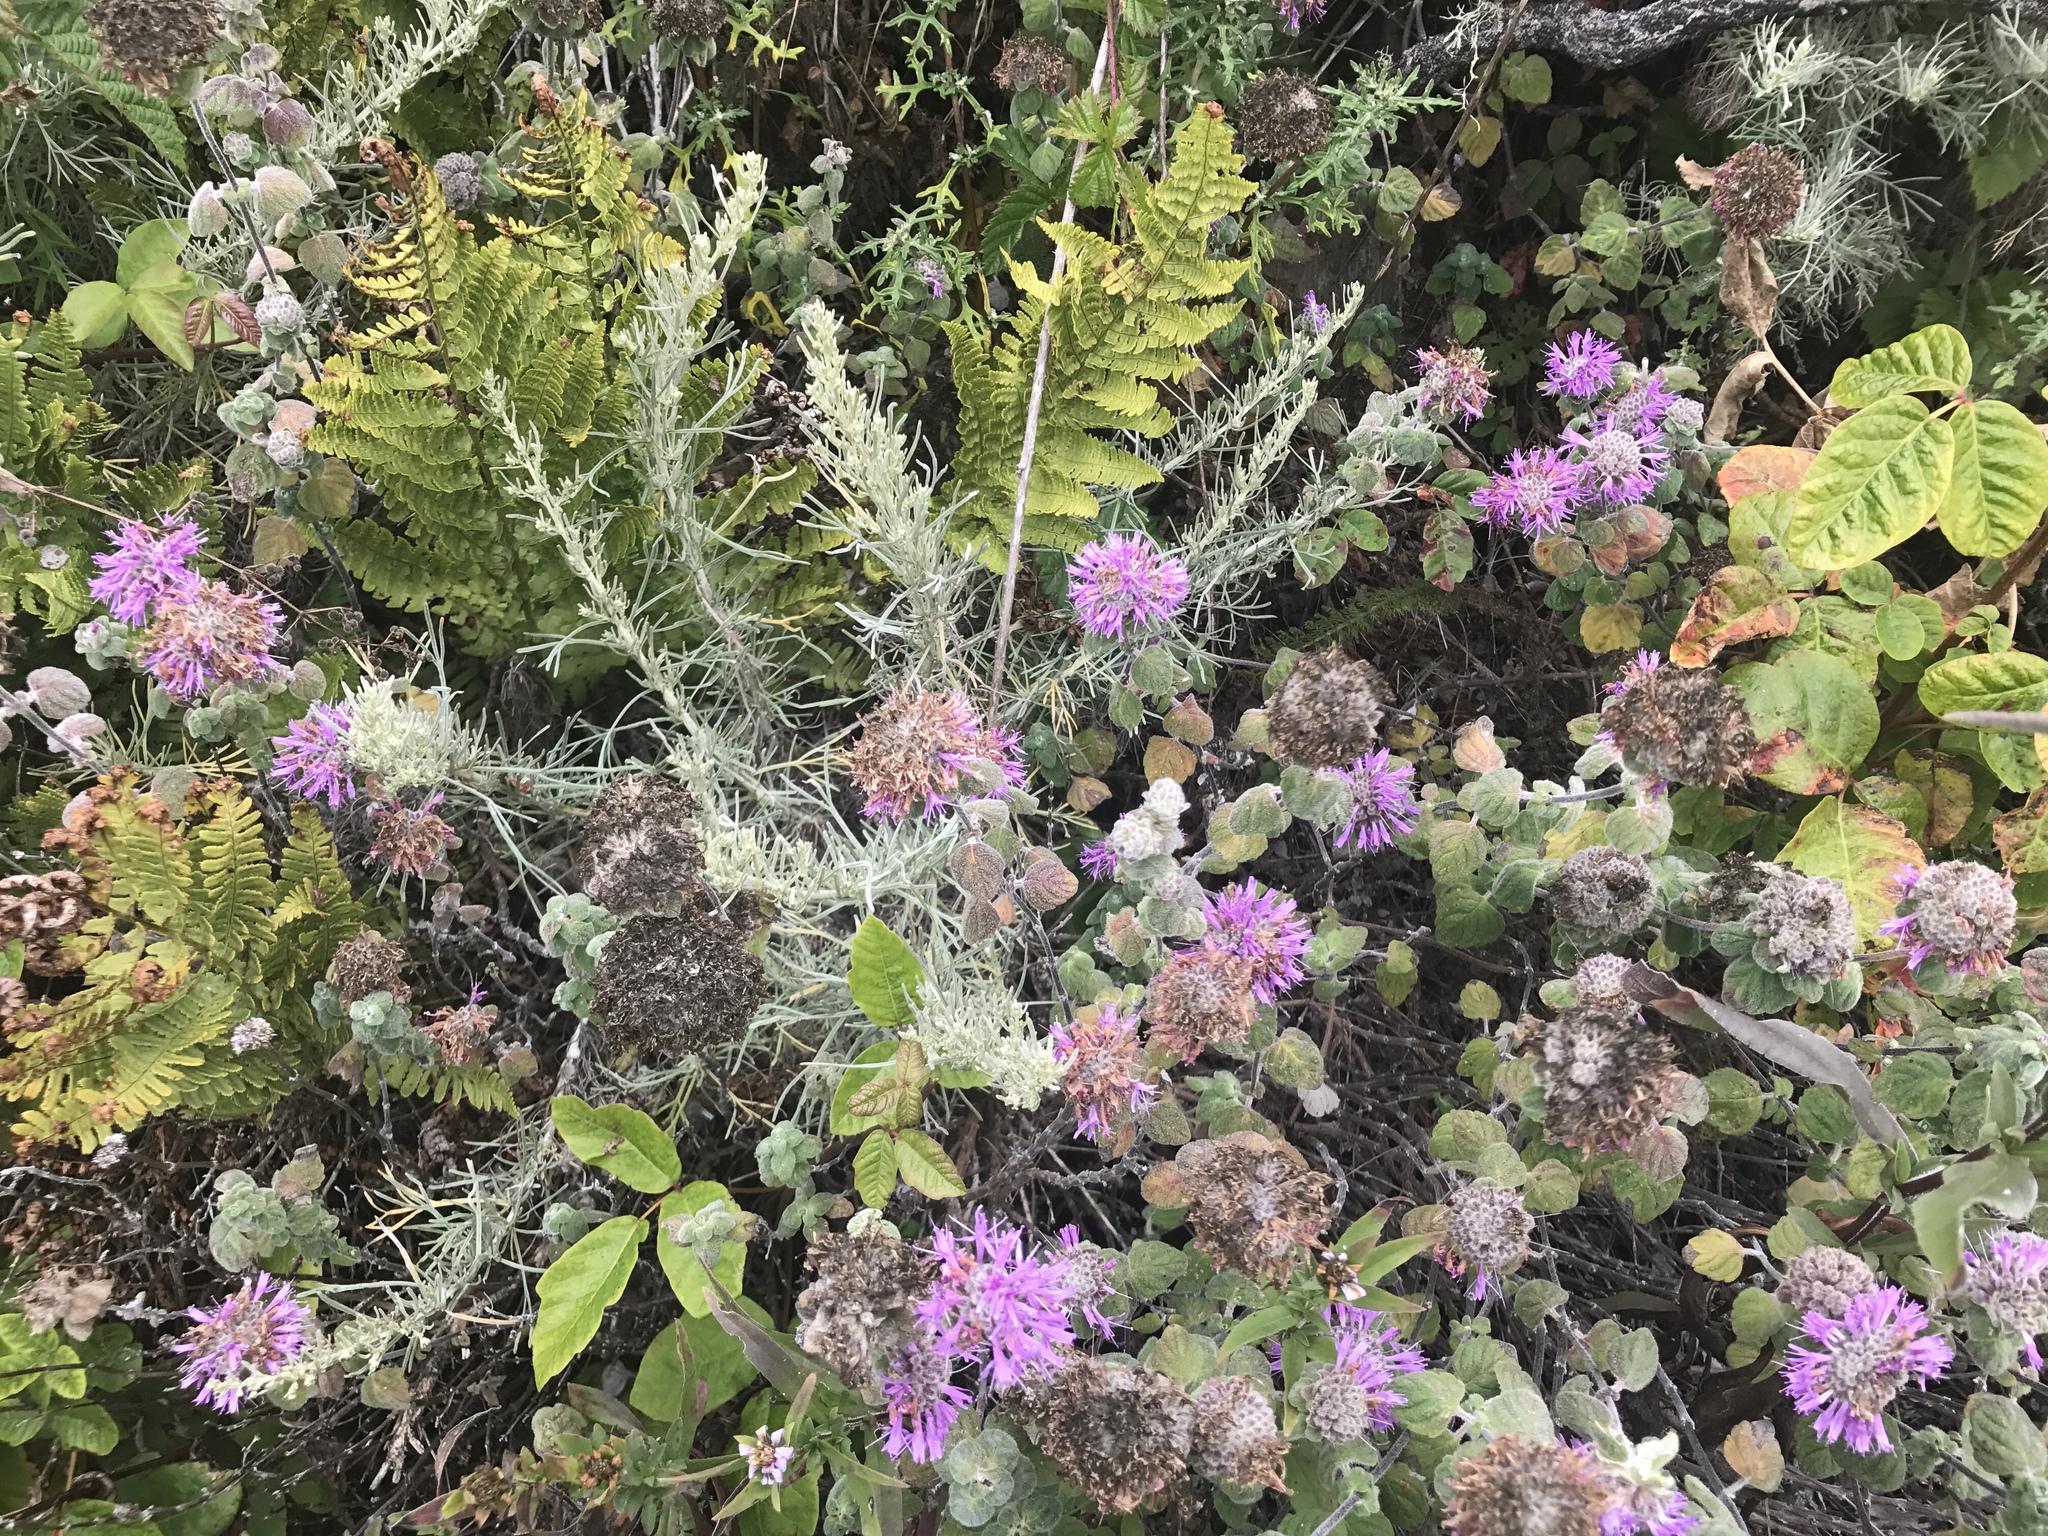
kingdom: Plantae
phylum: Tracheophyta
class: Magnoliopsida
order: Lamiales
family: Lamiaceae
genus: Monardella
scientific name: Monardella odoratissima
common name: Pacific monardella
